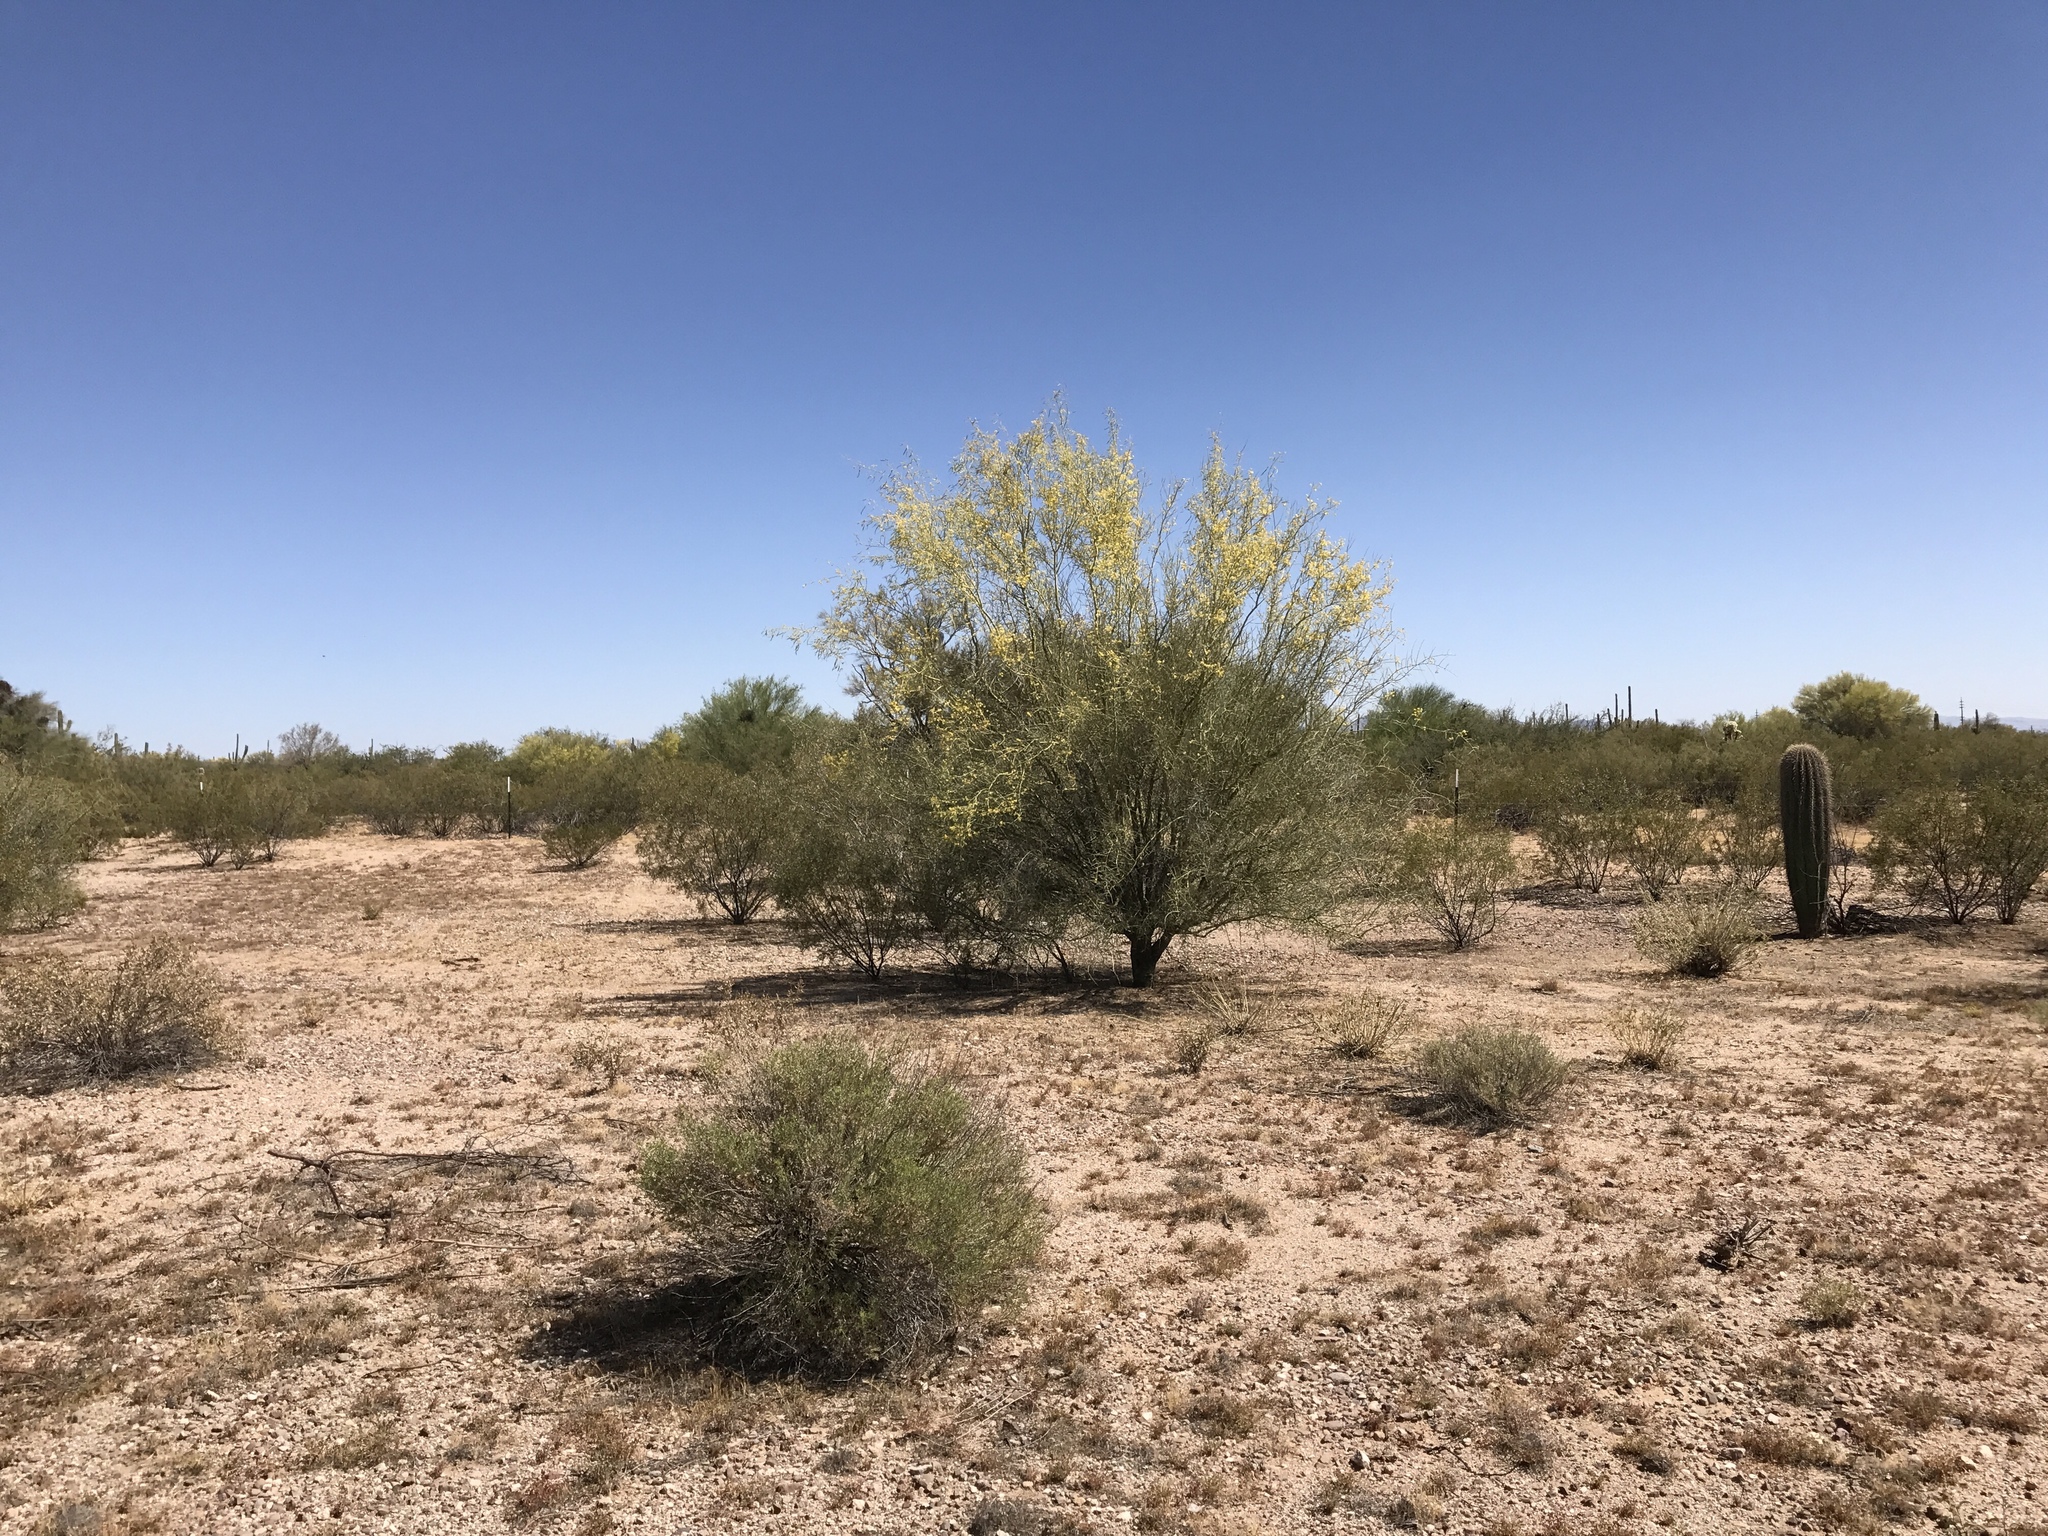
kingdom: Plantae
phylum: Tracheophyta
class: Magnoliopsida
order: Fabales
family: Fabaceae
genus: Parkinsonia
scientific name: Parkinsonia microphylla
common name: Yellow paloverde
